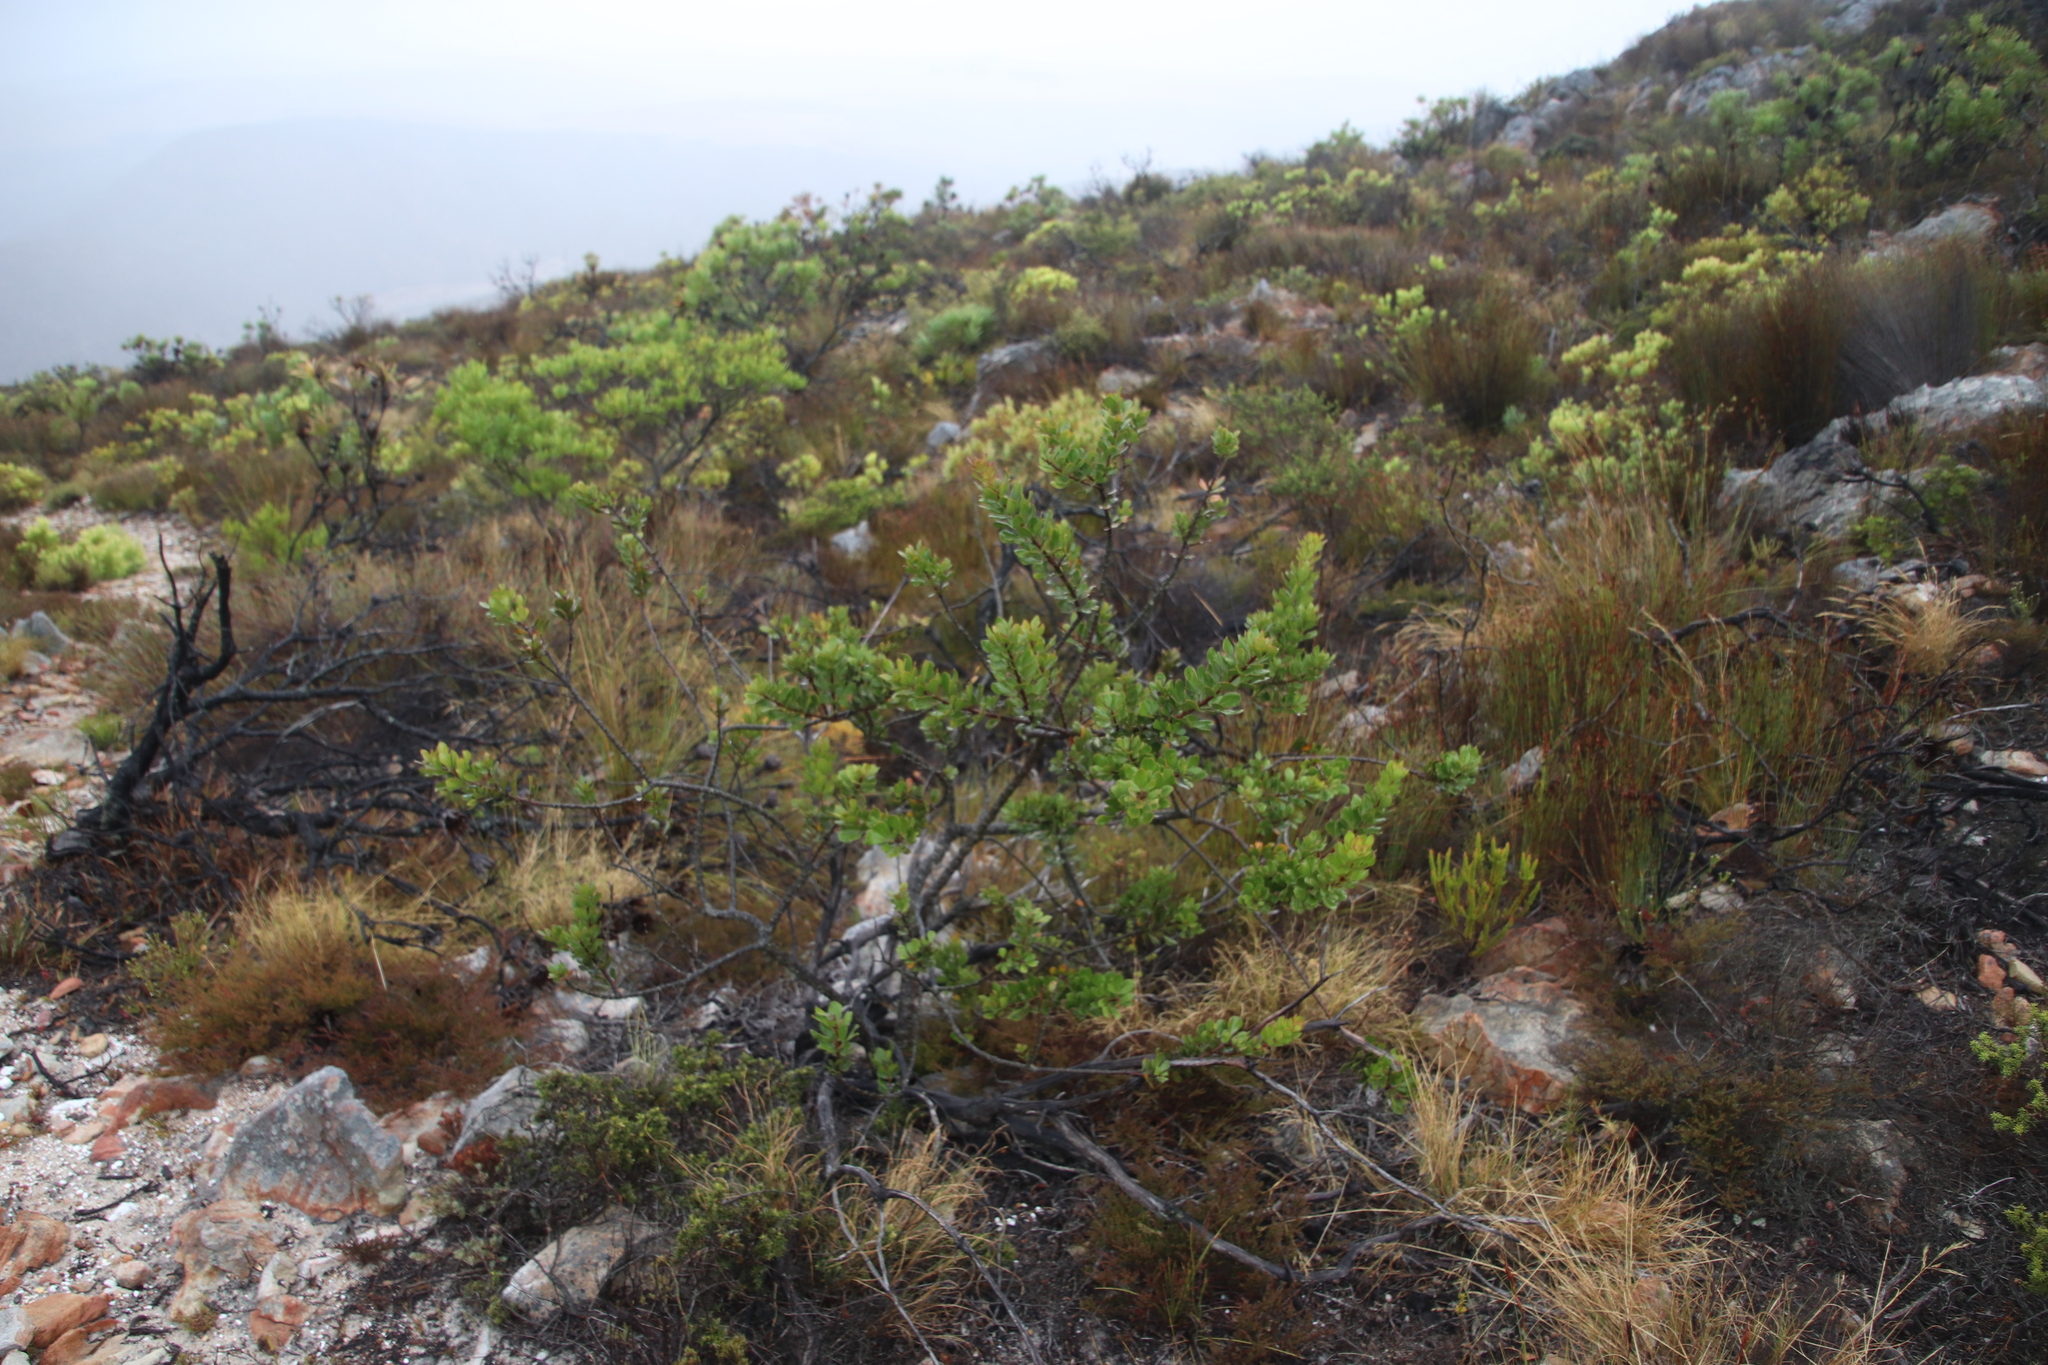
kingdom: Plantae
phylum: Tracheophyta
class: Magnoliopsida
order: Sapindales
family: Anacardiaceae
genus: Searsia
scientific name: Searsia scytophylla
